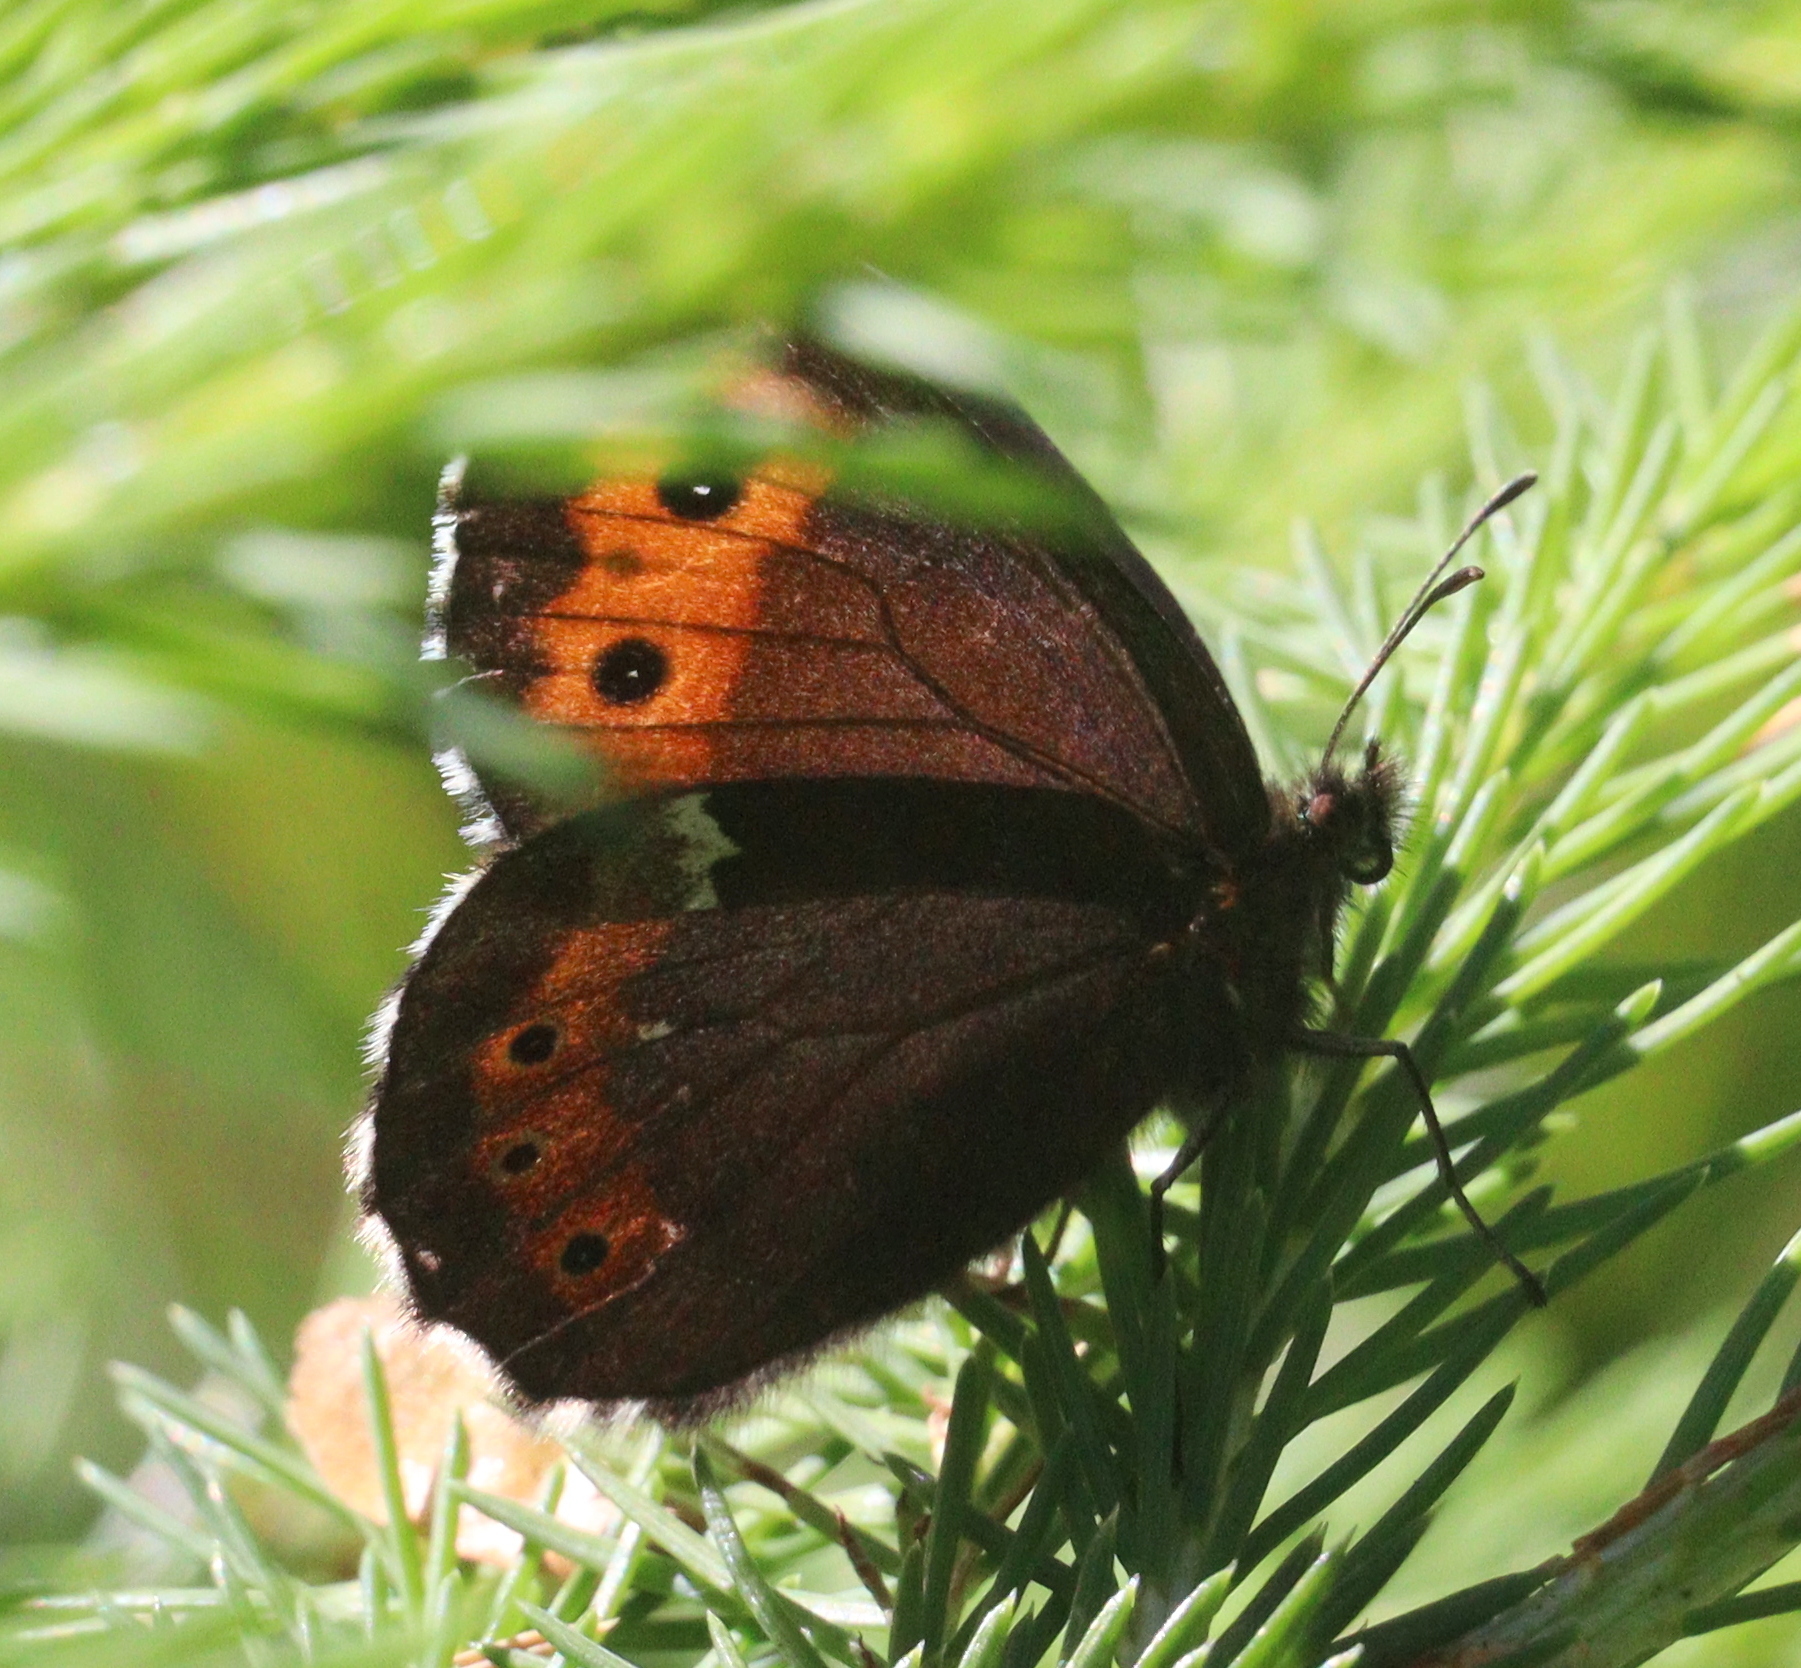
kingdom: Animalia
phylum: Arthropoda
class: Insecta
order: Lepidoptera
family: Nymphalidae
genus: Erebia
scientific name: Erebia ligea
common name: Arran brown
